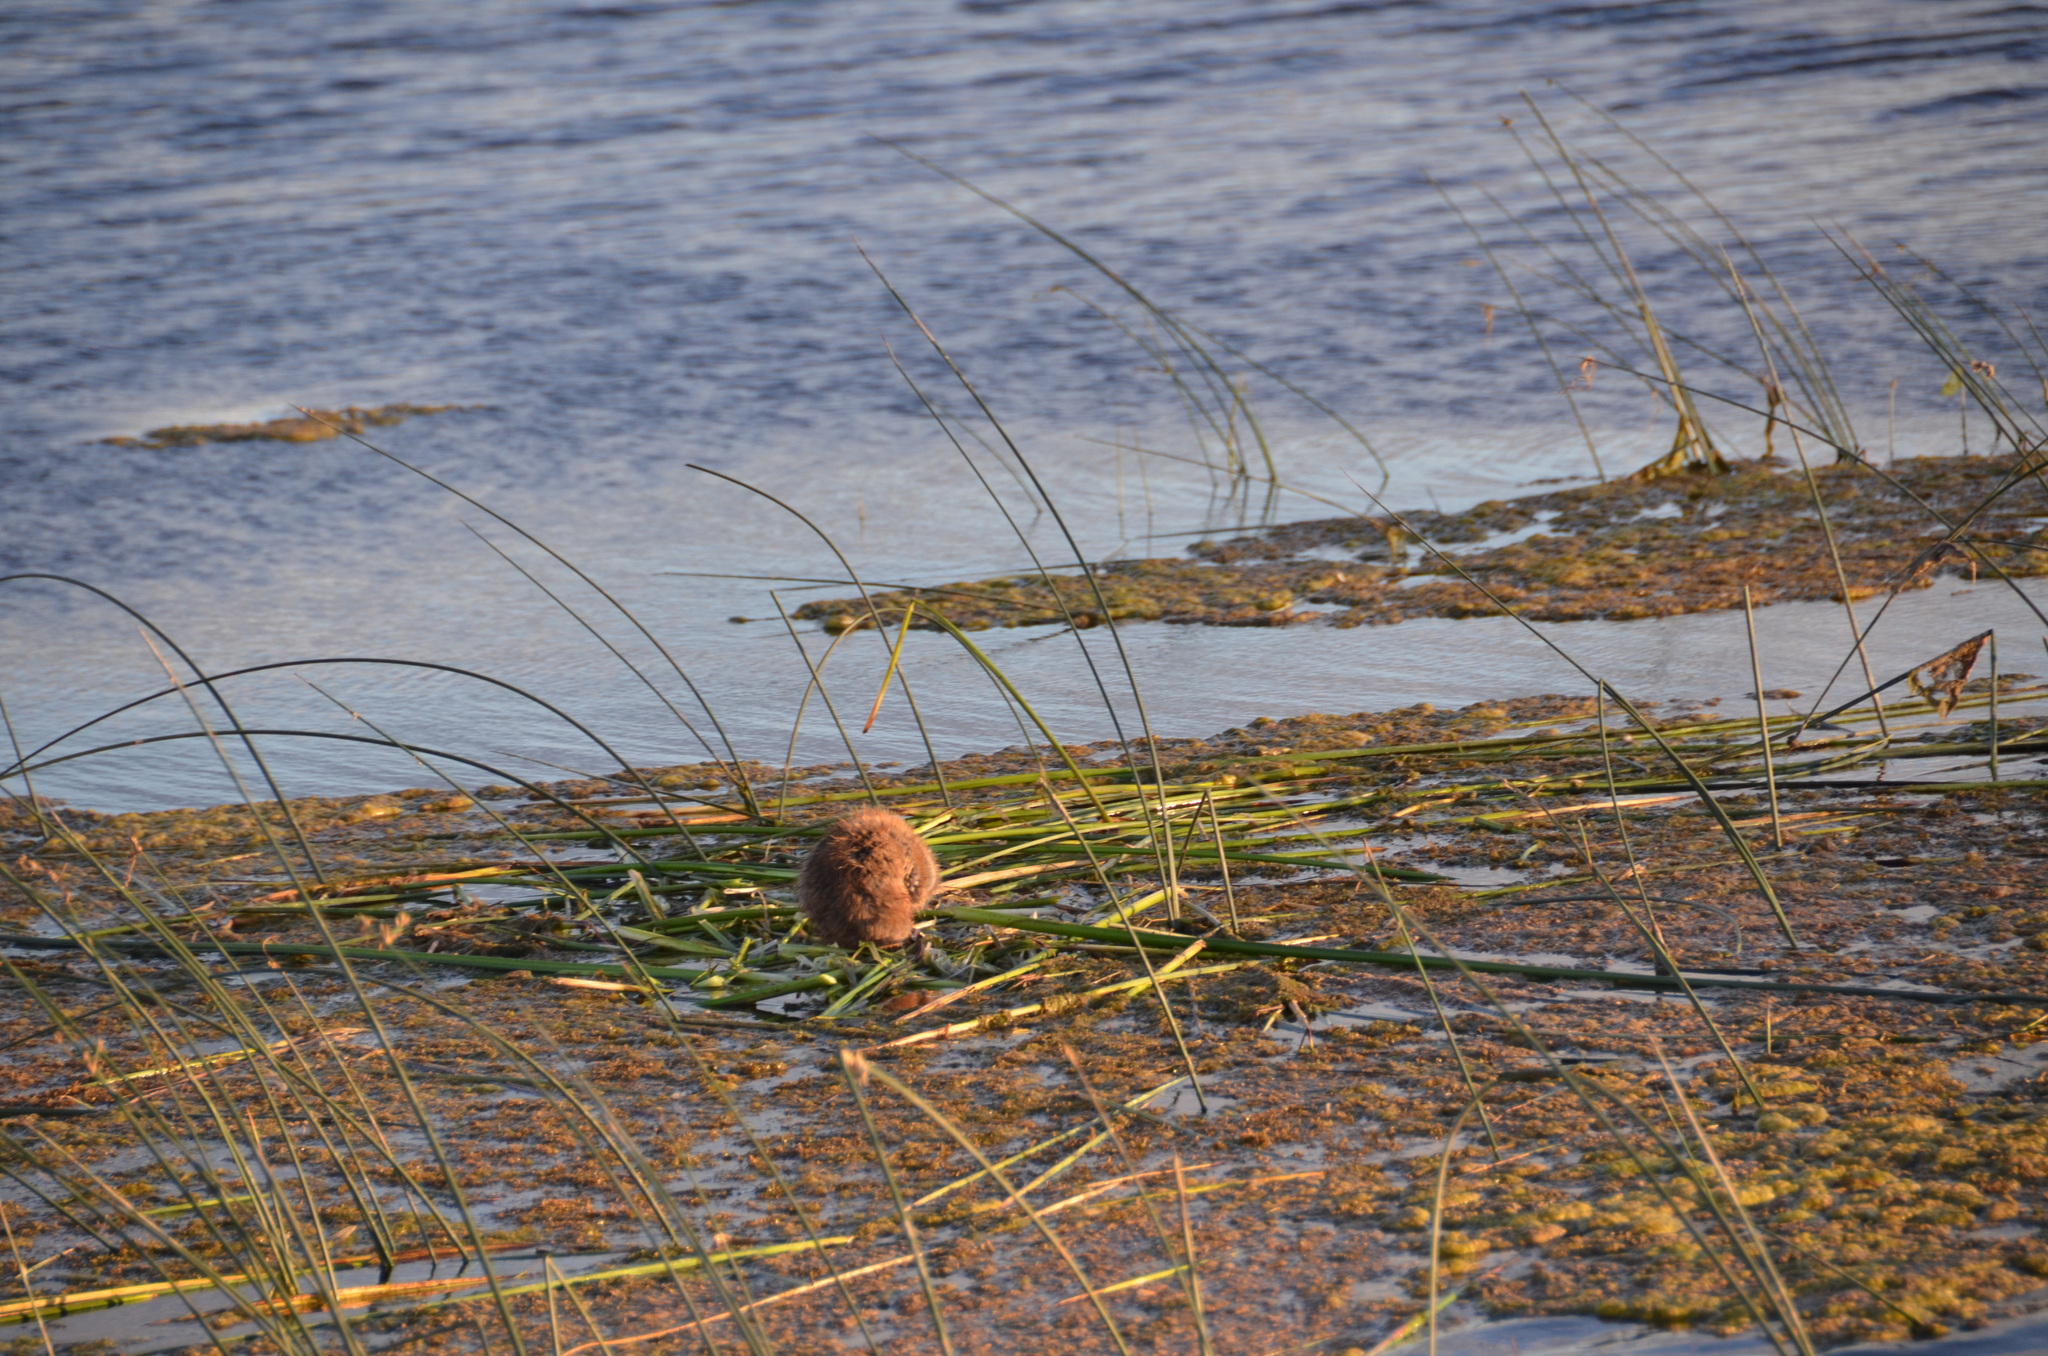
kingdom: Animalia
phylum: Chordata
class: Mammalia
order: Rodentia
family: Cricetidae
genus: Ondatra
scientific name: Ondatra zibethicus
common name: Muskrat
